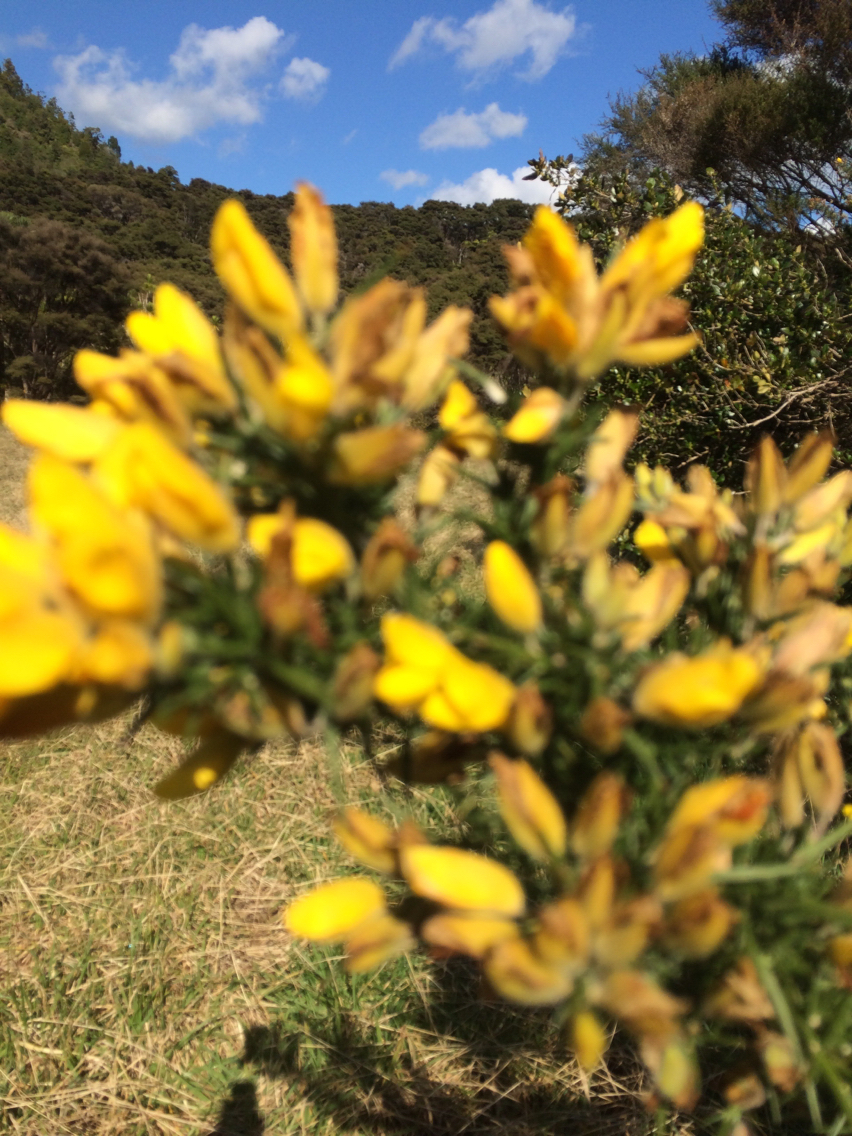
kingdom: Plantae
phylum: Tracheophyta
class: Magnoliopsida
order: Fabales
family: Fabaceae
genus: Ulex
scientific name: Ulex europaeus
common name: Common gorse
